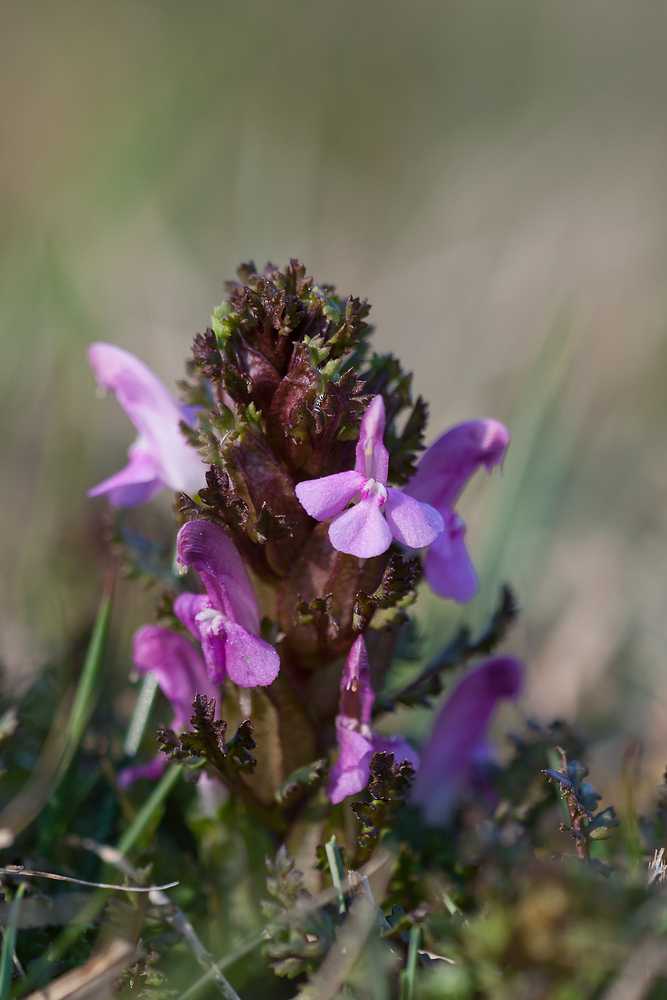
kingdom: Plantae
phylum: Tracheophyta
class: Magnoliopsida
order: Lamiales
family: Orobanchaceae
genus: Pedicularis
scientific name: Pedicularis sylvatica
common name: Lousewort
